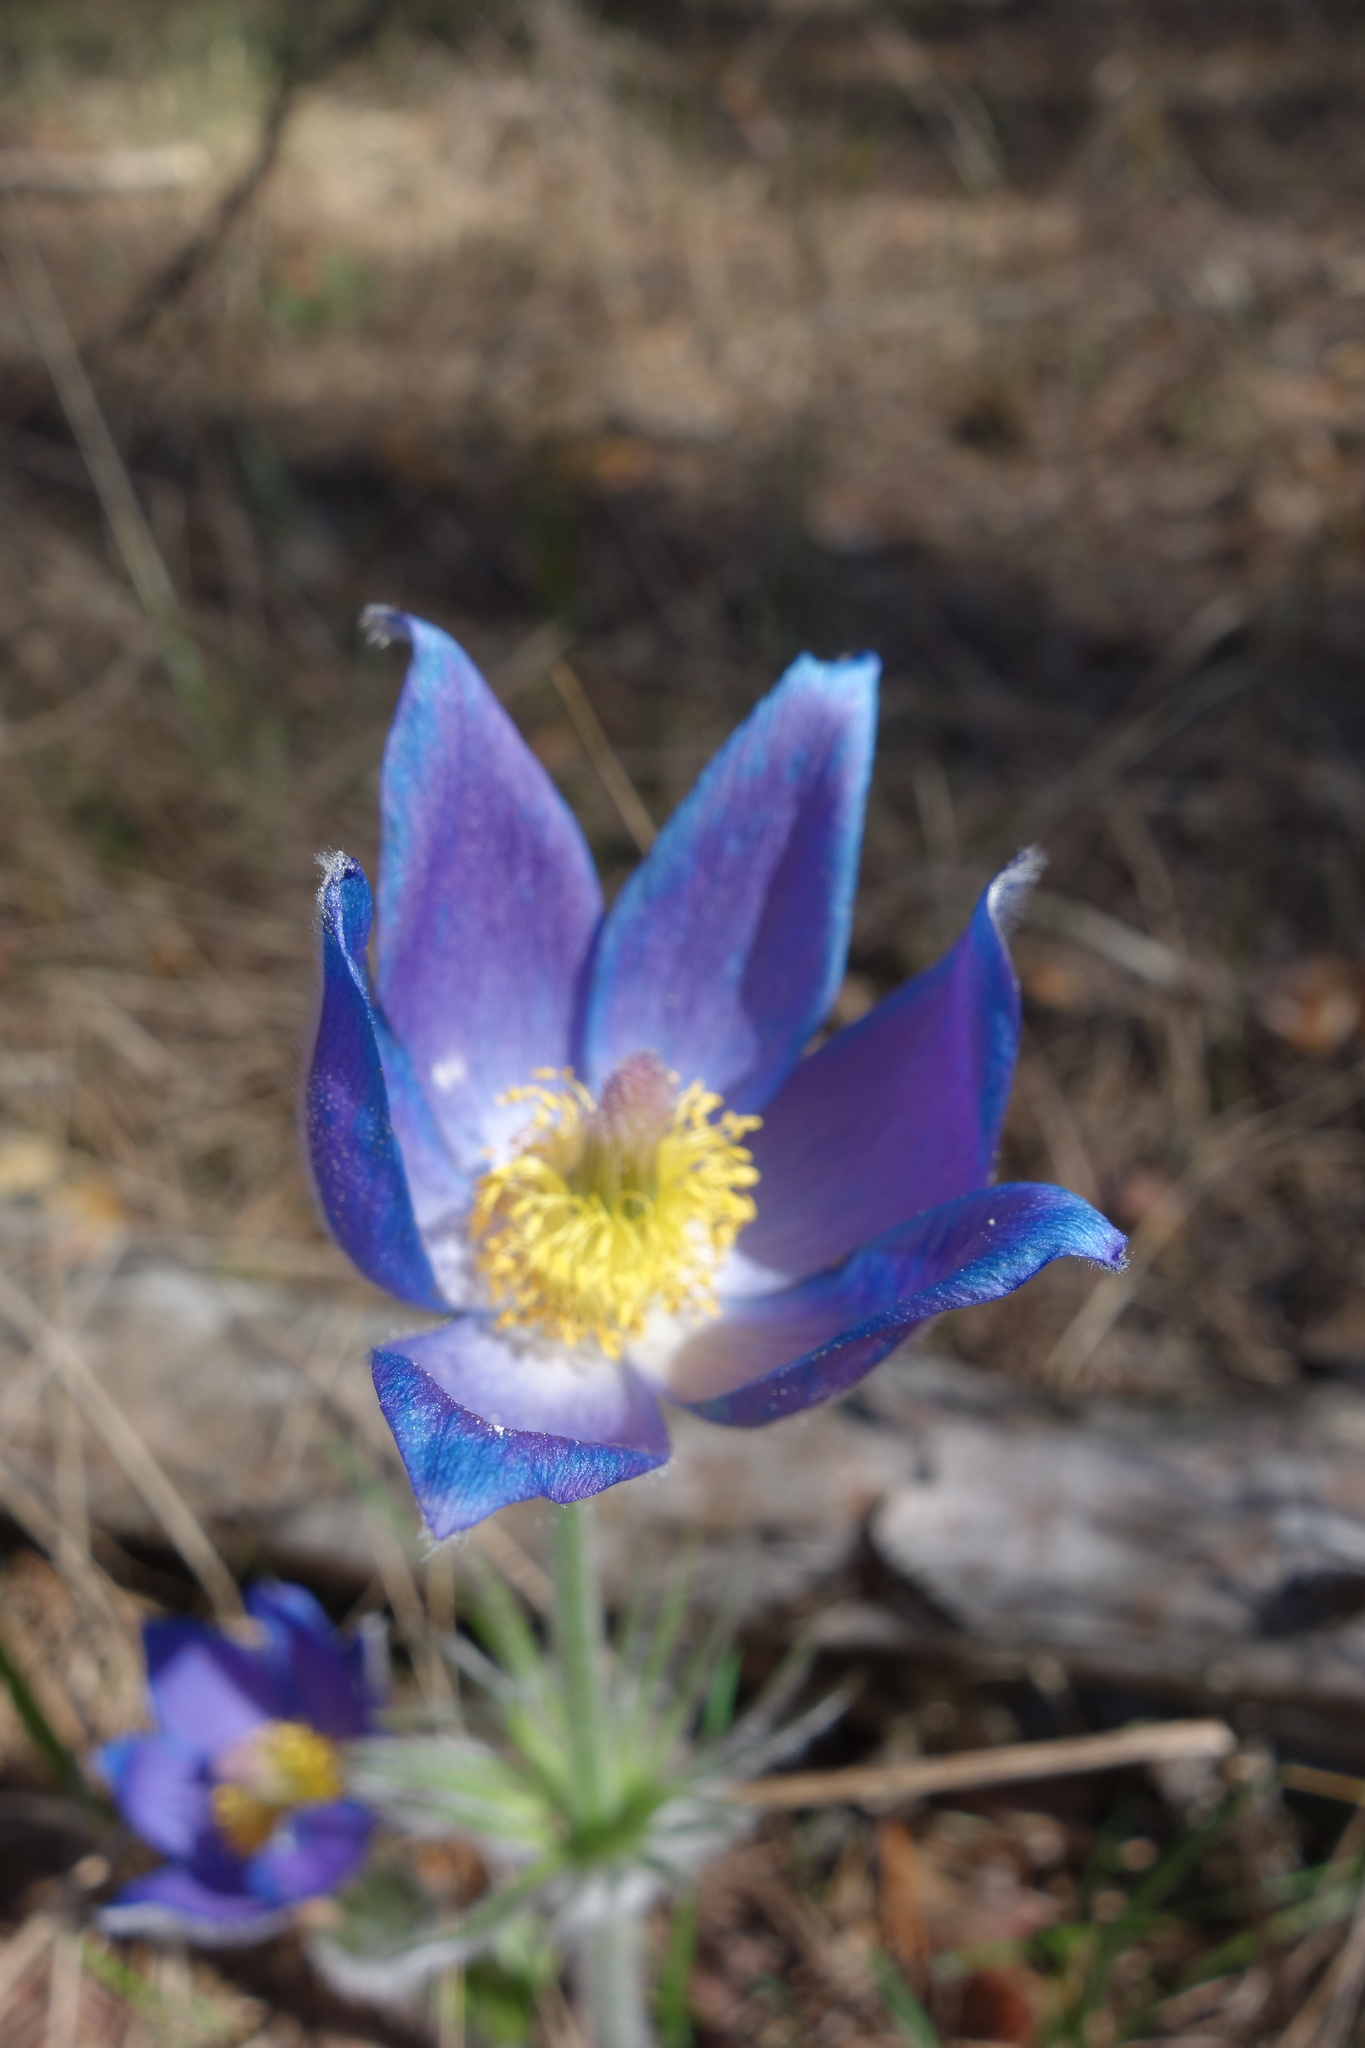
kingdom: Plantae
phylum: Tracheophyta
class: Magnoliopsida
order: Ranunculales
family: Ranunculaceae
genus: Pulsatilla
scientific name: Pulsatilla patens
